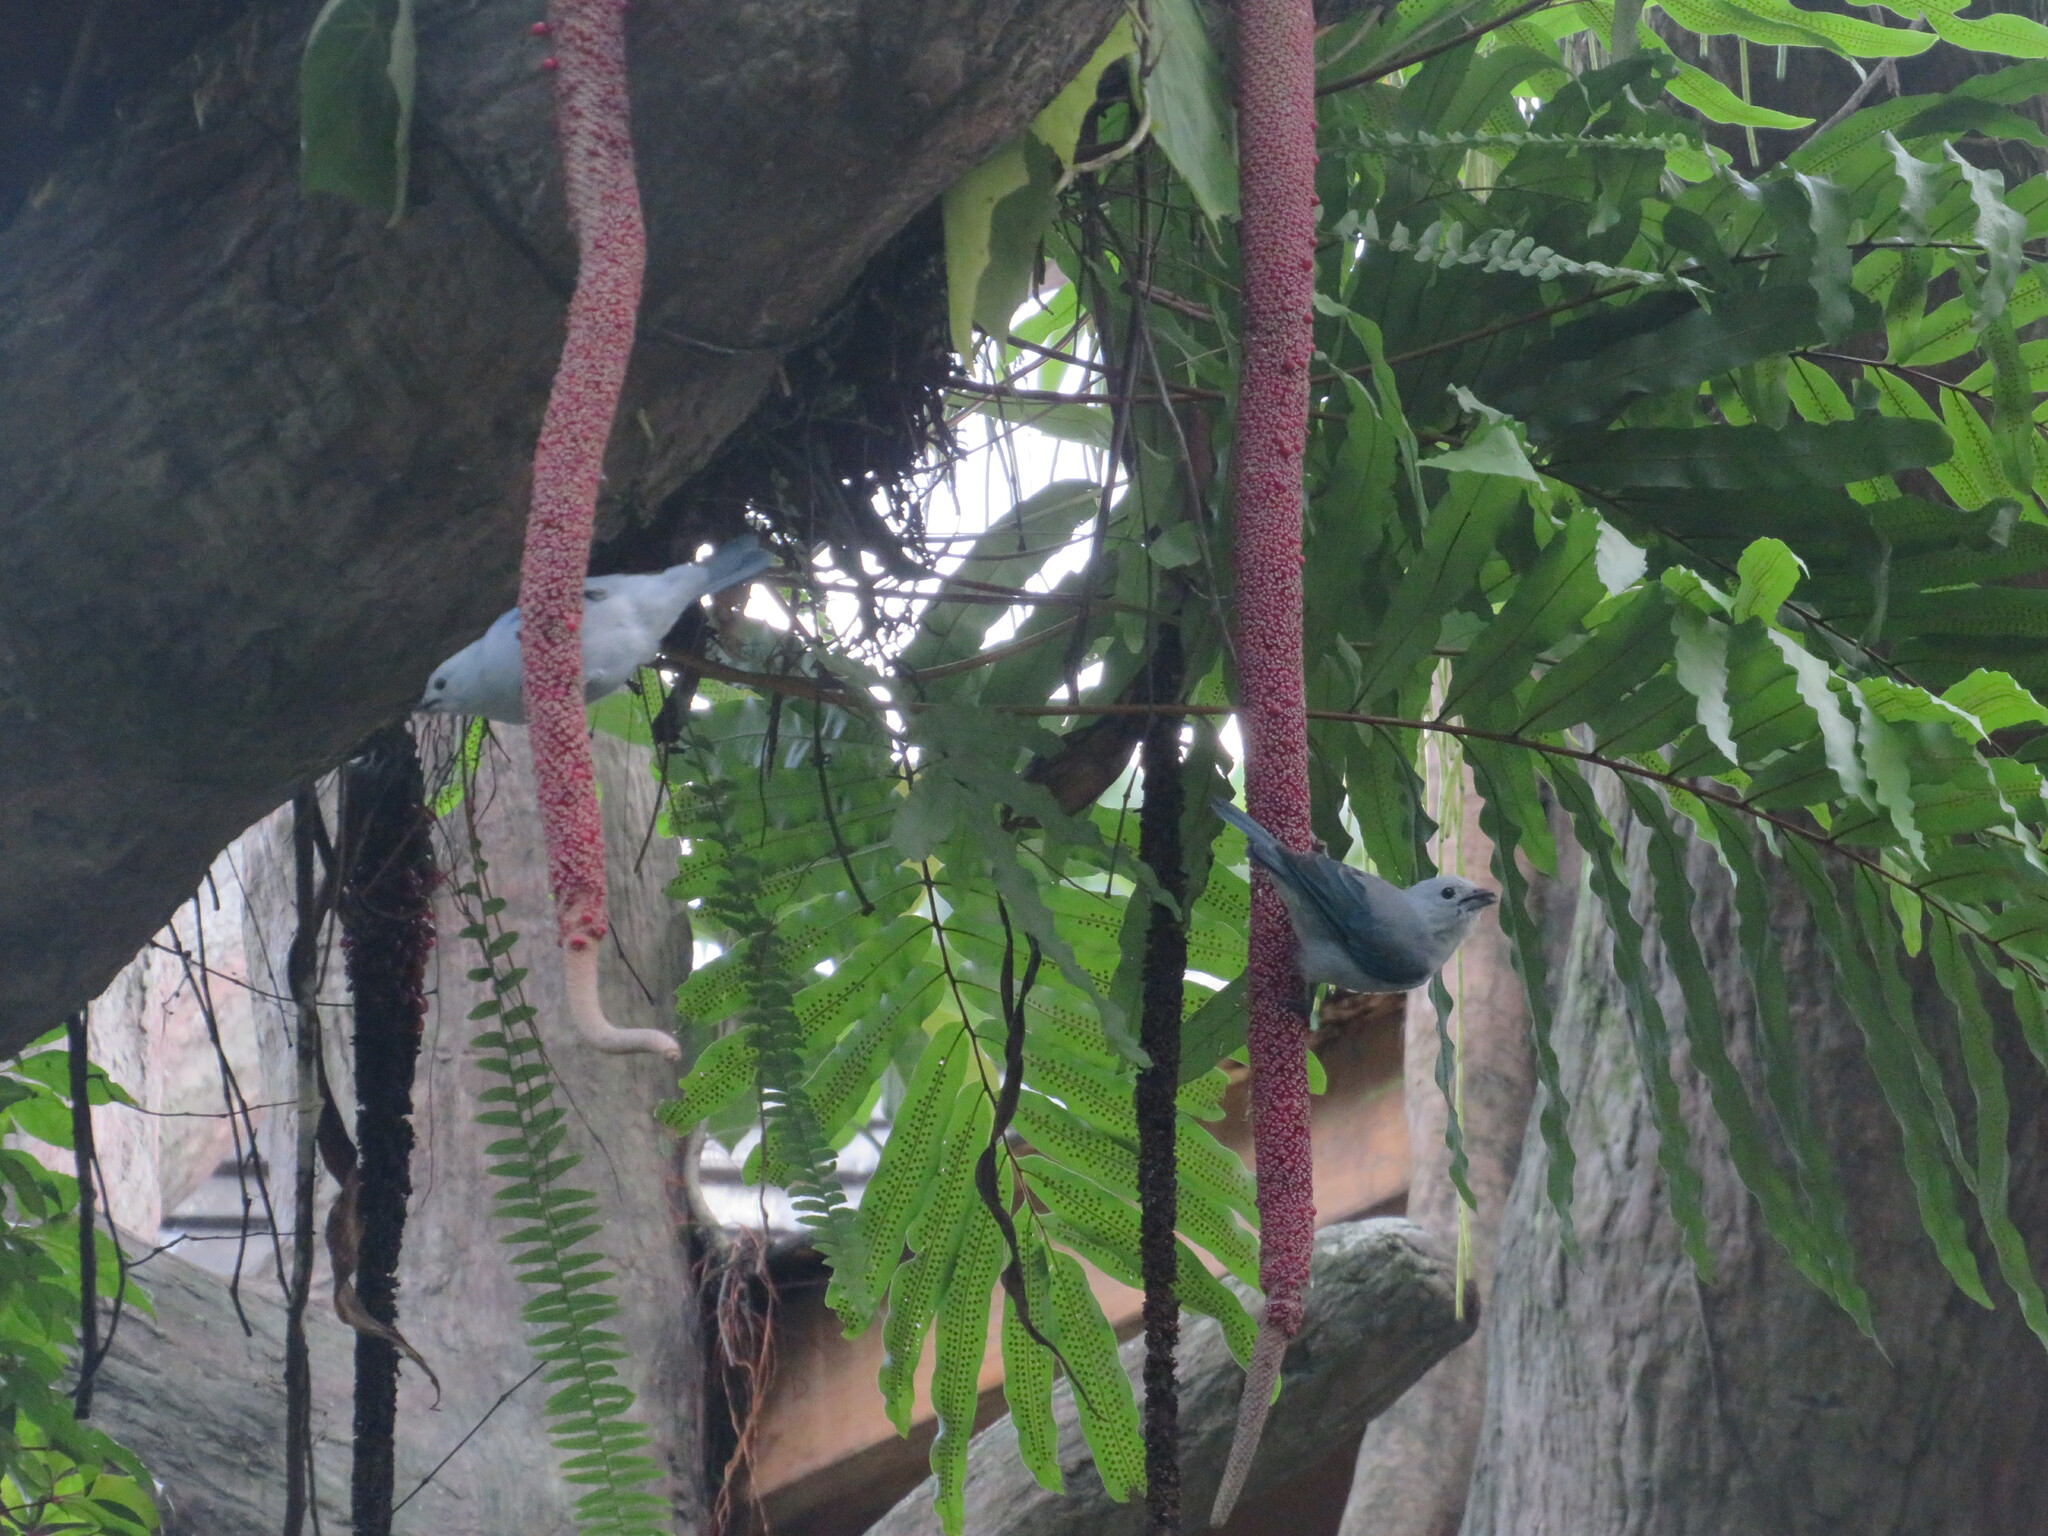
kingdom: Animalia
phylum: Chordata
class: Aves
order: Passeriformes
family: Thraupidae
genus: Thraupis
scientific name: Thraupis episcopus
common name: Blue-grey tanager
